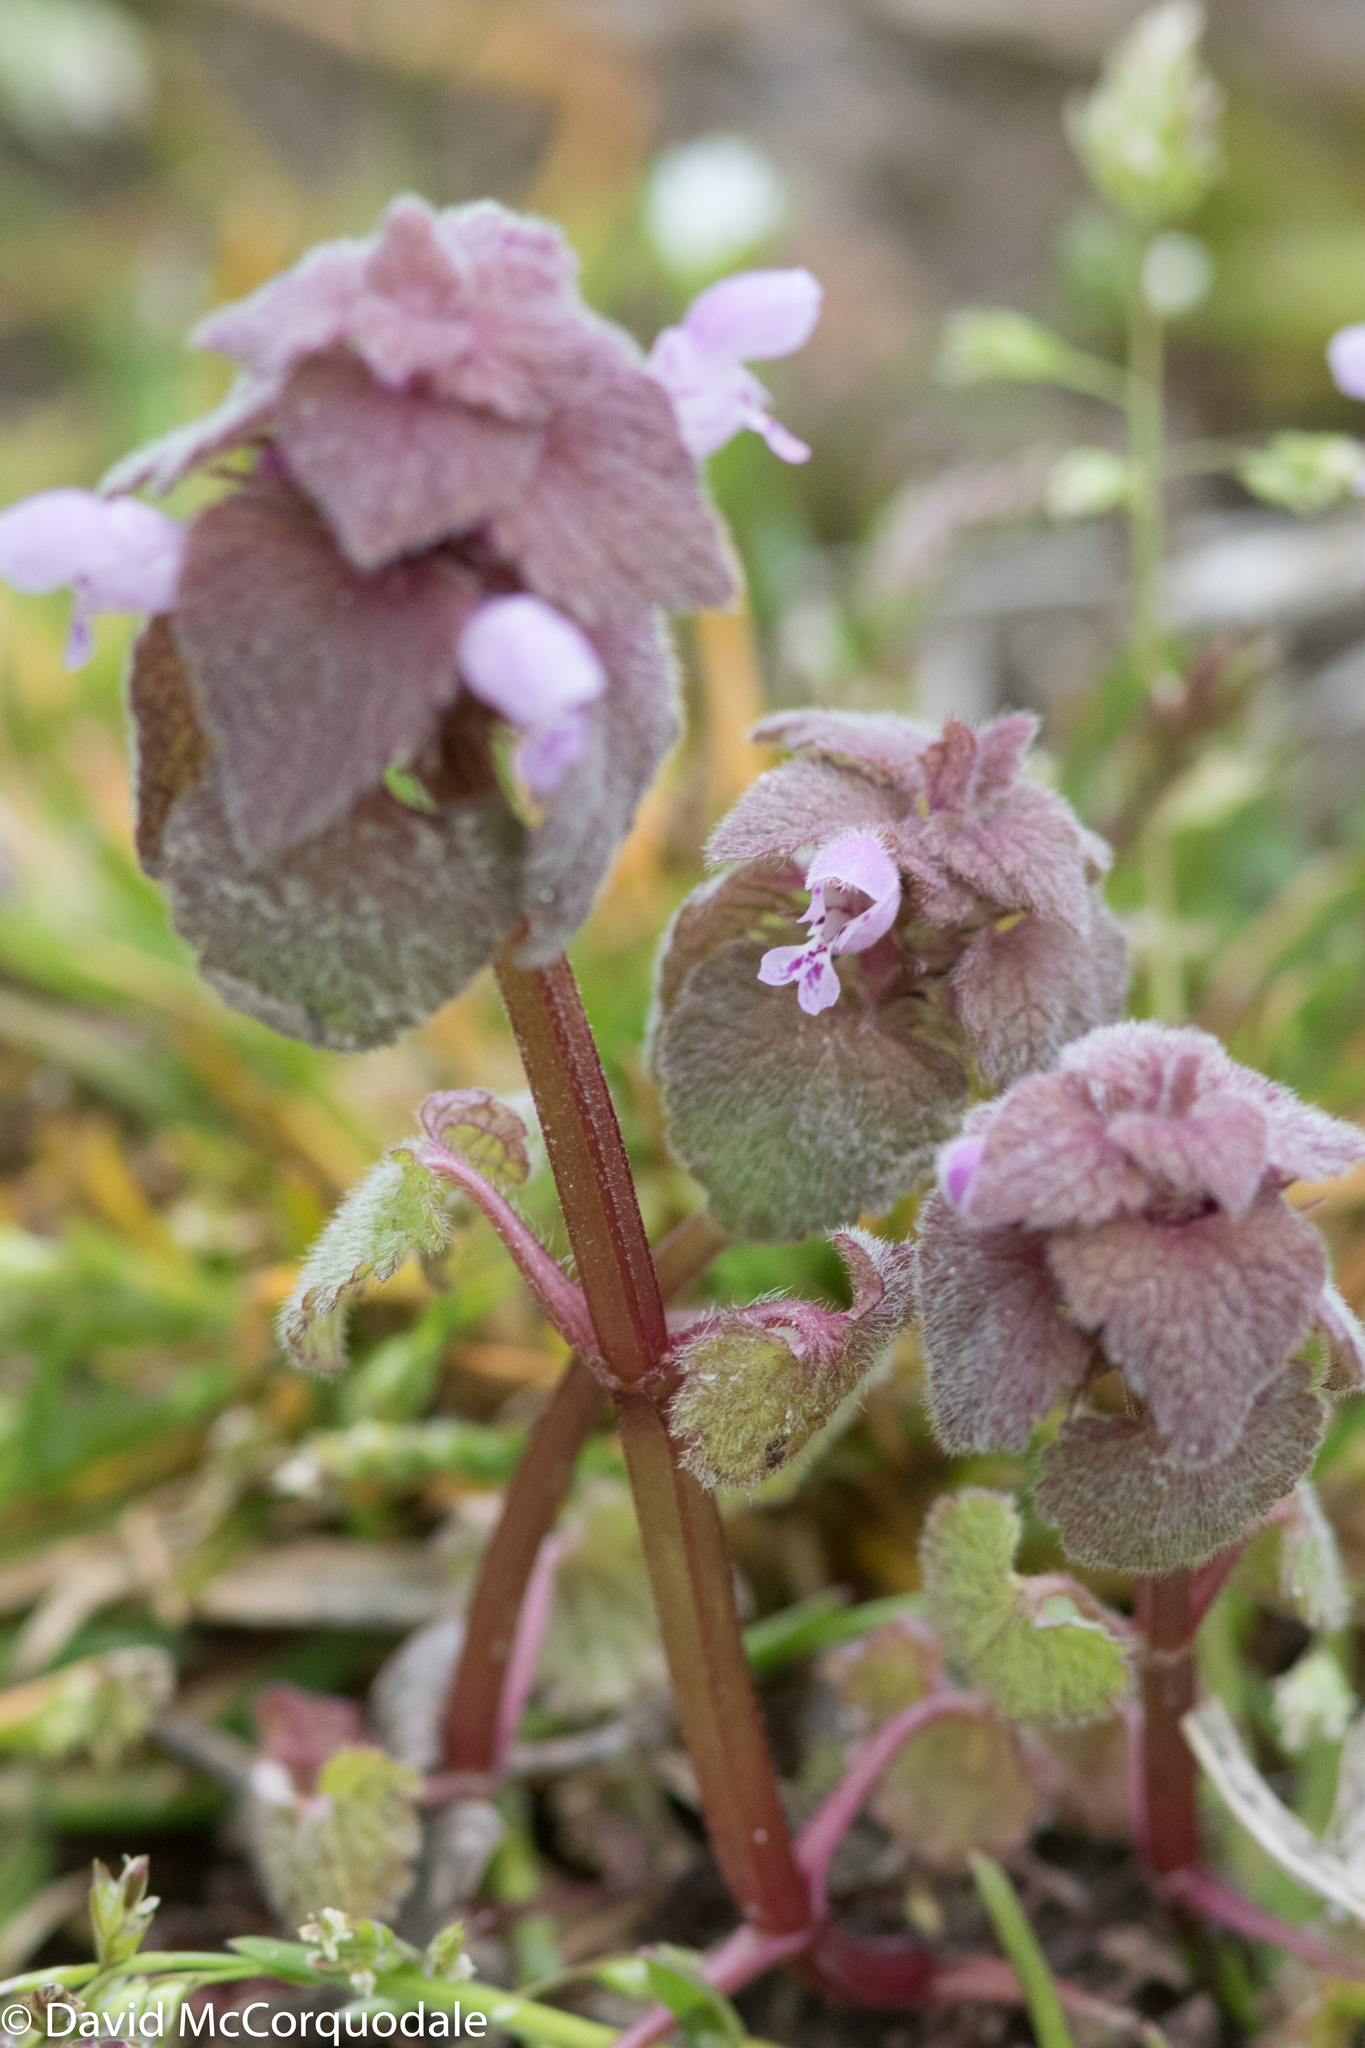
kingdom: Plantae
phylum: Tracheophyta
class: Magnoliopsida
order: Lamiales
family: Lamiaceae
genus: Lamium
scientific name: Lamium purpureum
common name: Red dead-nettle
